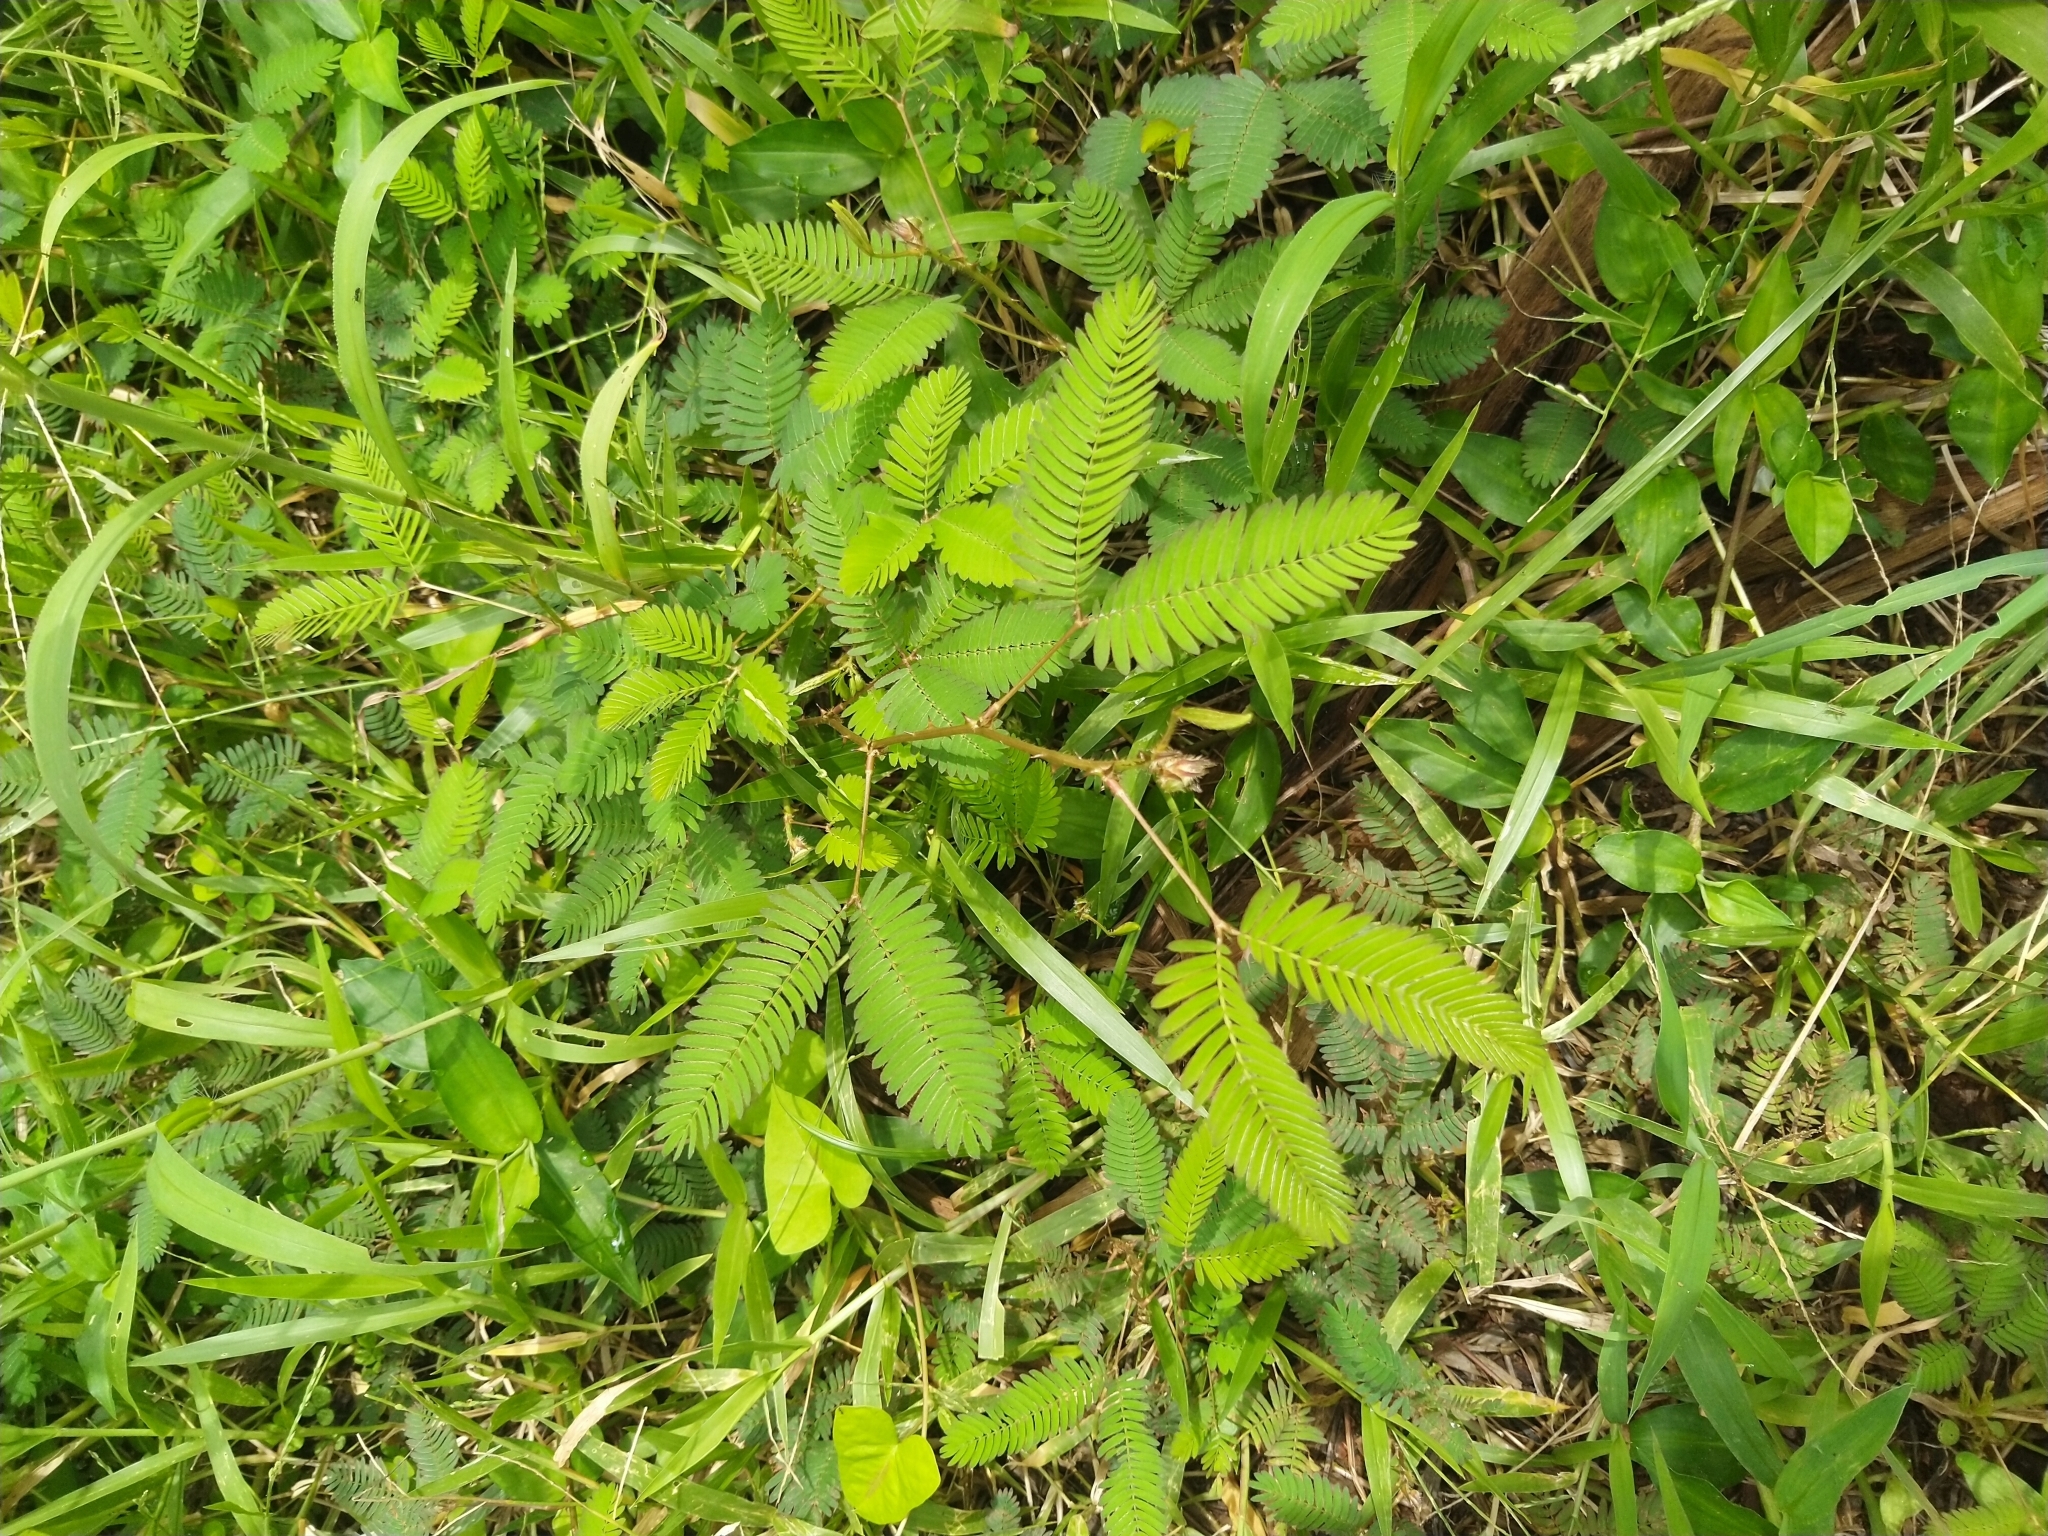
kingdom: Plantae
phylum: Tracheophyta
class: Magnoliopsida
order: Fabales
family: Fabaceae
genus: Mimosa
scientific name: Mimosa pudica
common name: Sensitive plant
